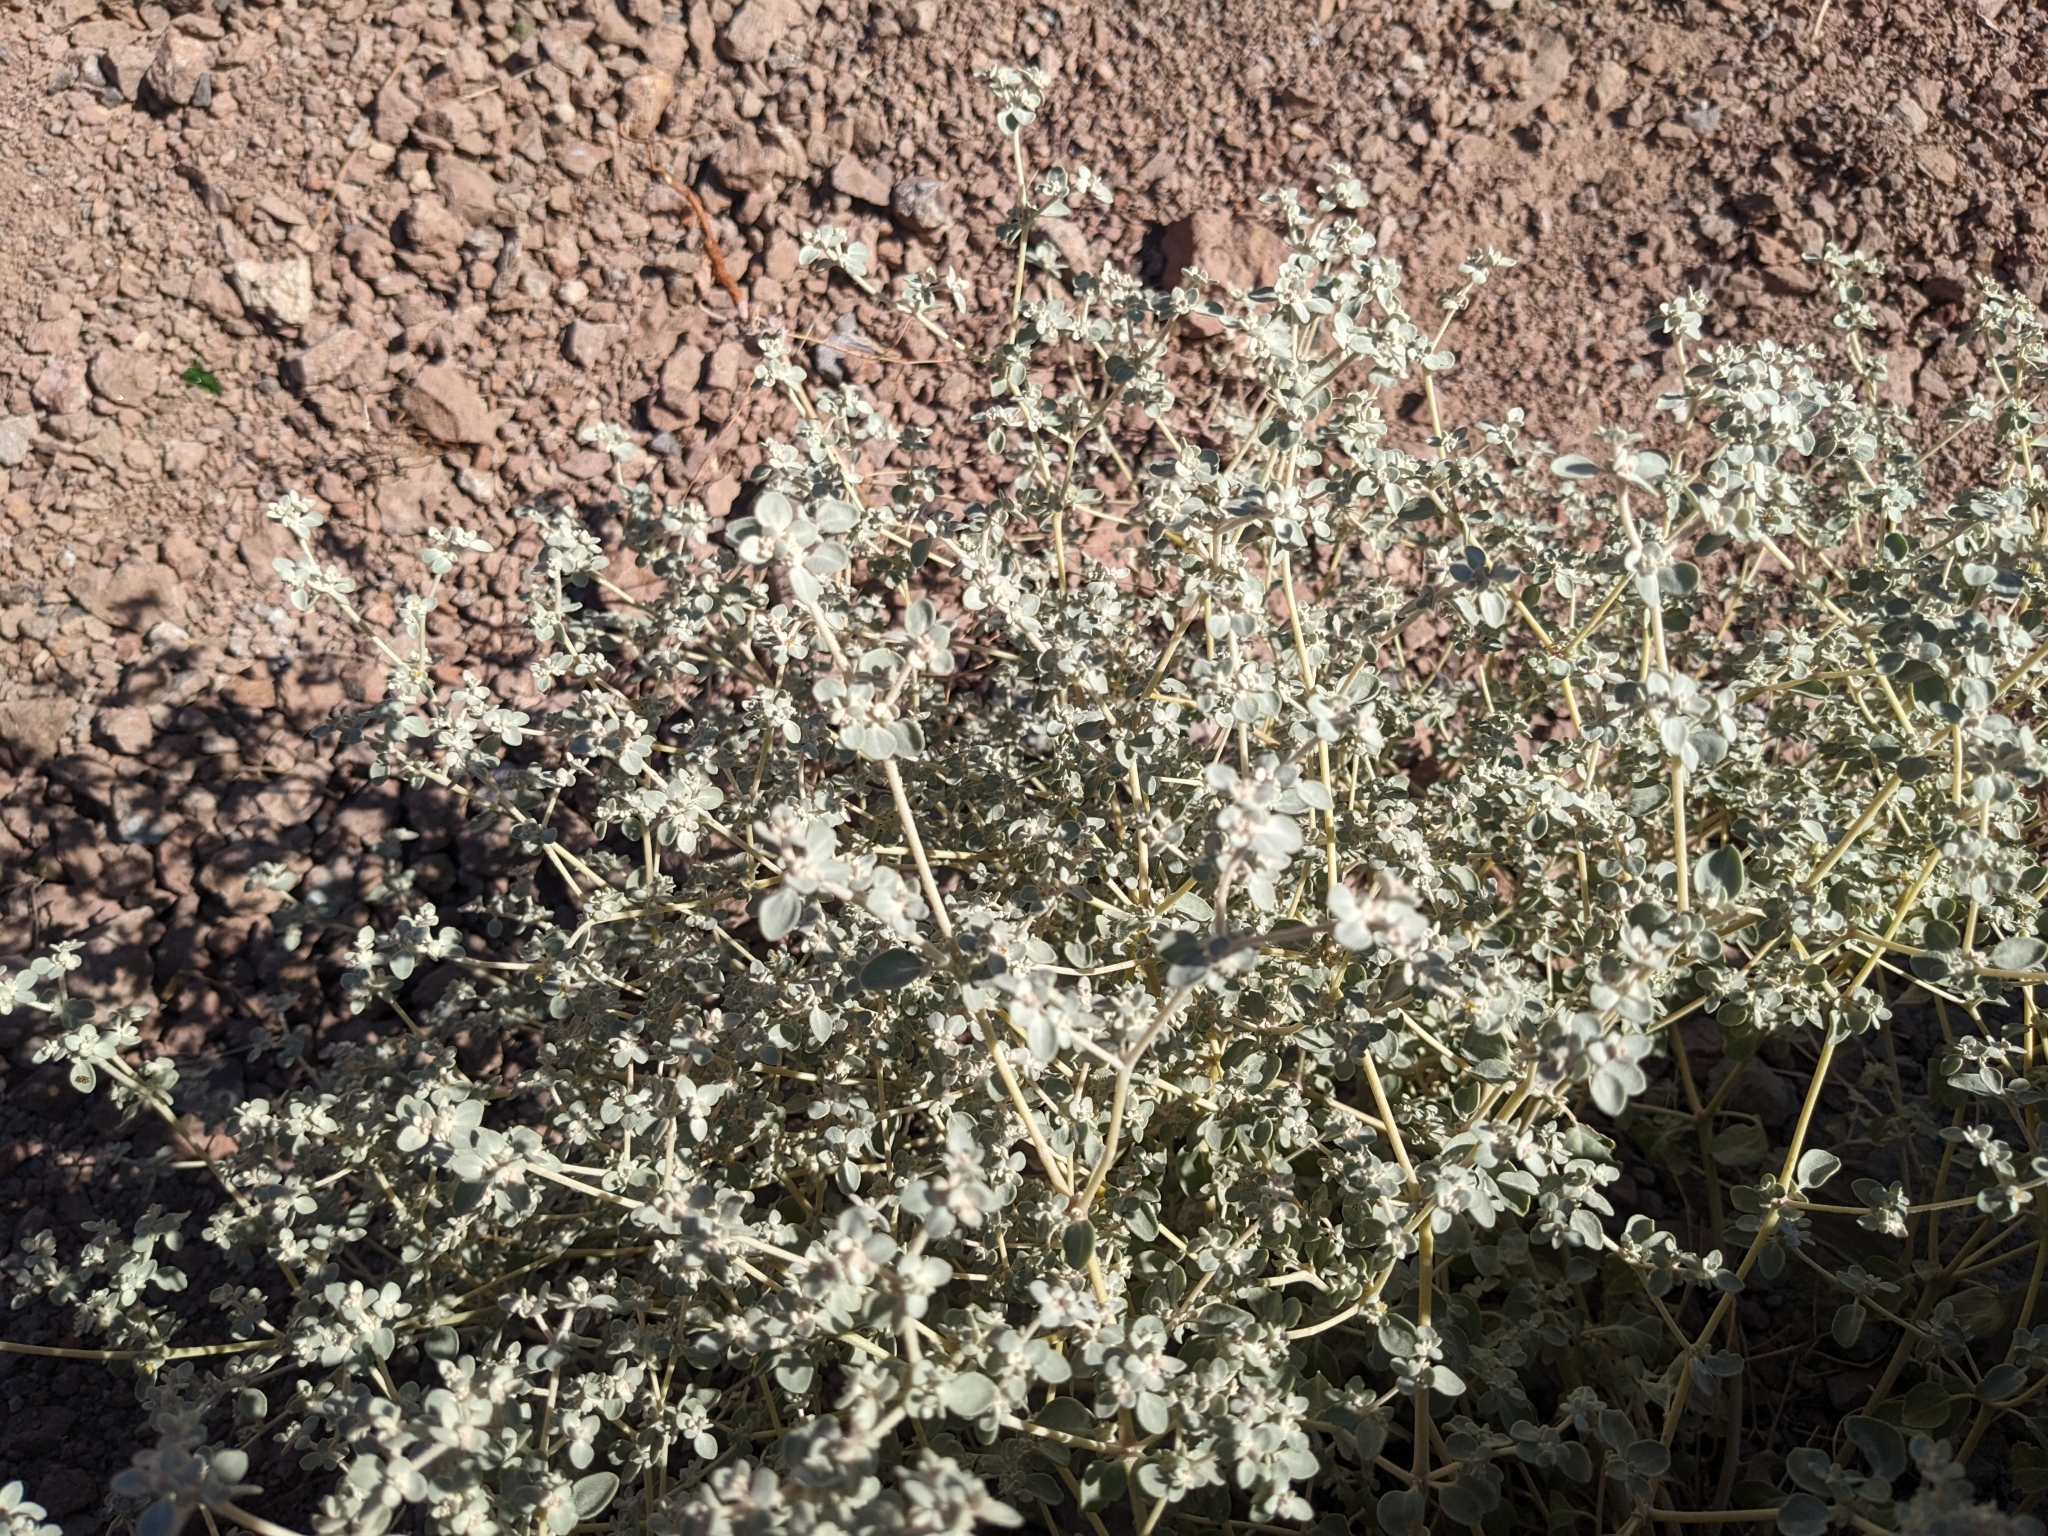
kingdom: Plantae
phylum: Tracheophyta
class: Magnoliopsida
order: Caryophyllales
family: Amaranthaceae
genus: Tidestromia
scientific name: Tidestromia suffruticosa
